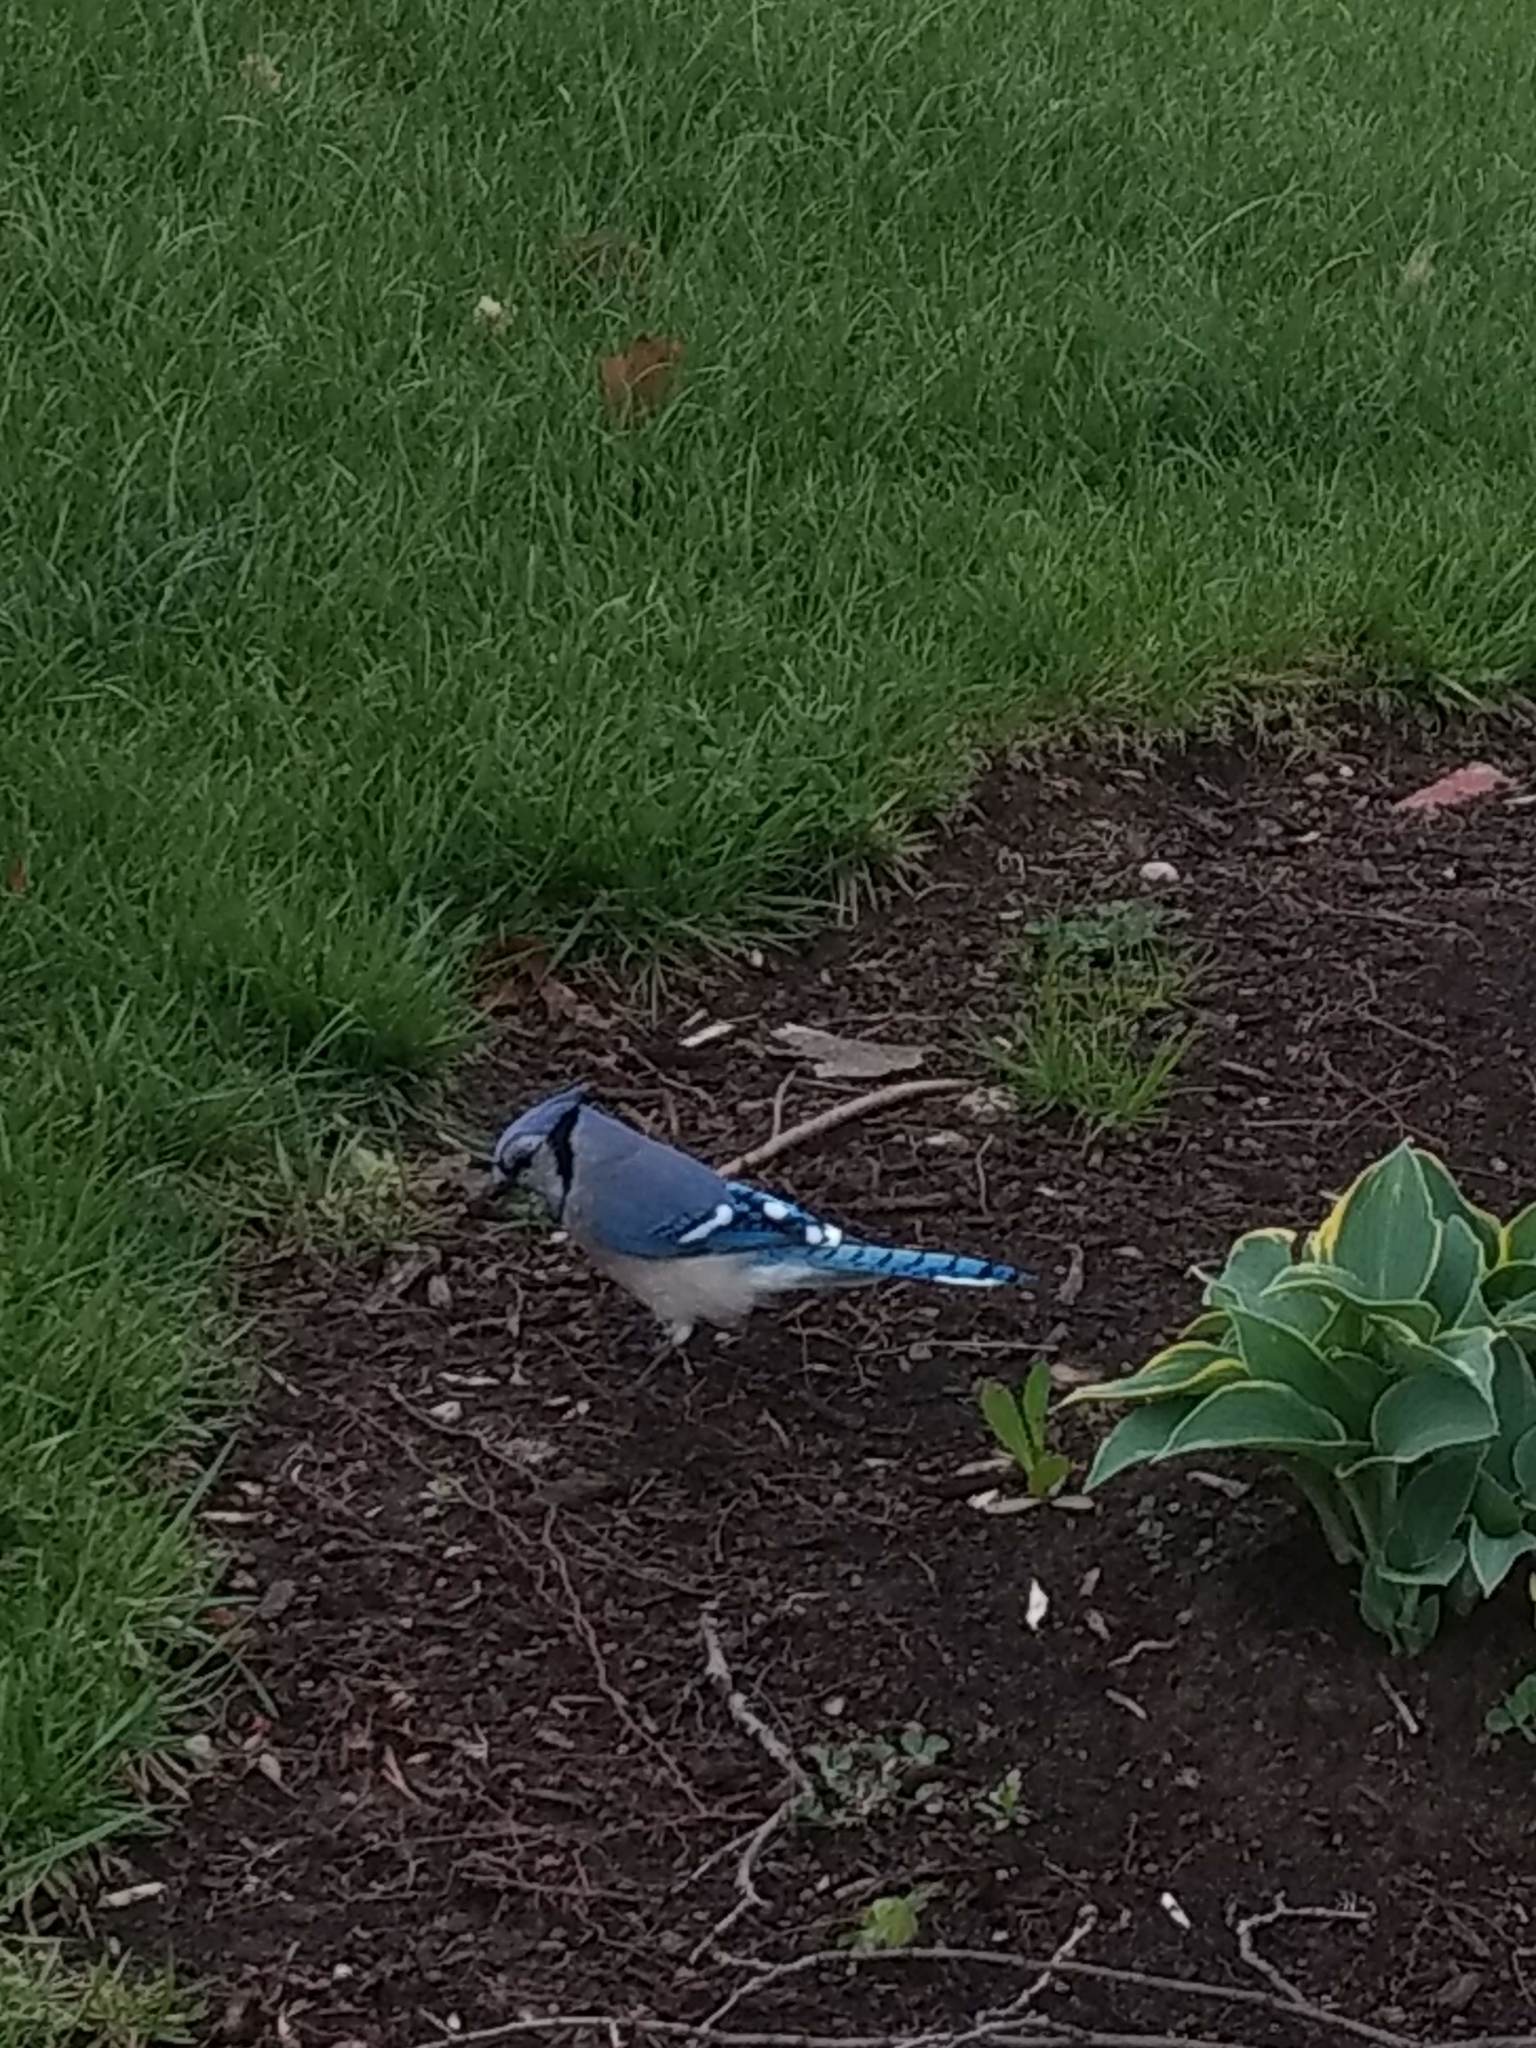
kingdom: Animalia
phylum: Chordata
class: Aves
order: Passeriformes
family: Corvidae
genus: Cyanocitta
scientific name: Cyanocitta cristata
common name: Blue jay
